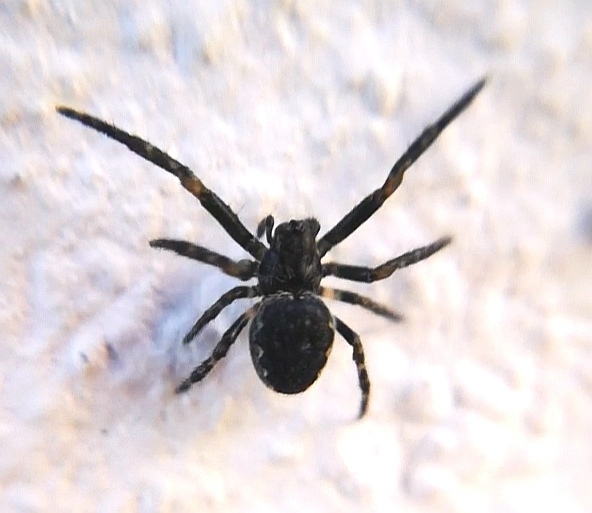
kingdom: Animalia
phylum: Arthropoda
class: Arachnida
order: Araneae
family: Araneidae
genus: Nuctenea
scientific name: Nuctenea umbratica
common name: Toad spider
